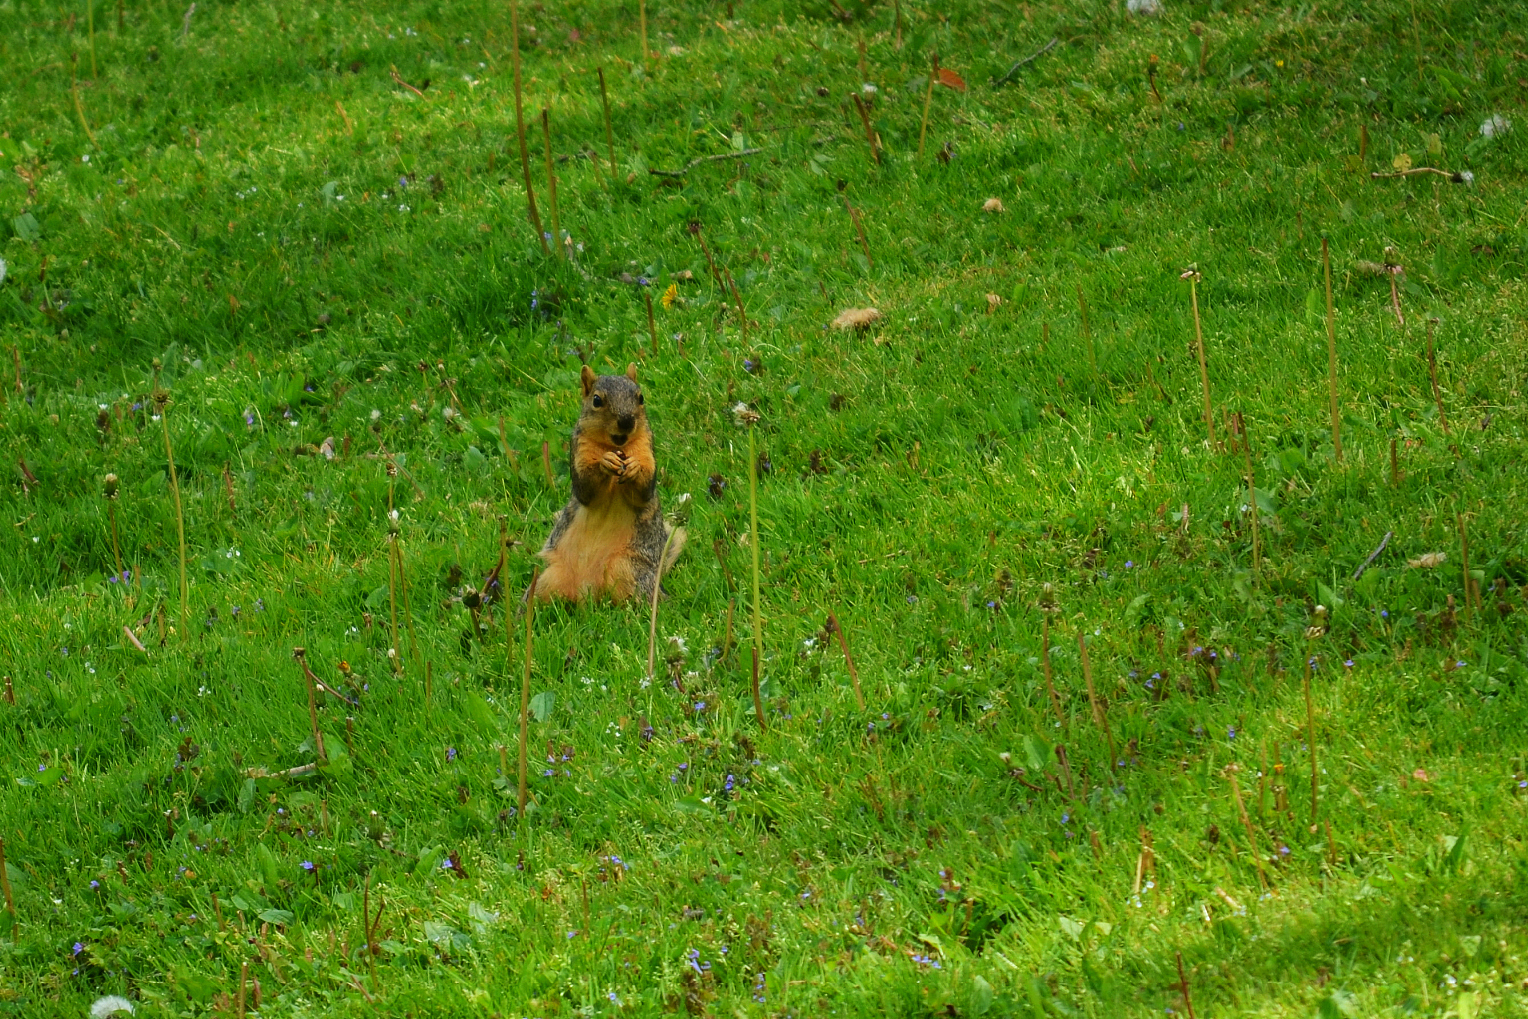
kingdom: Animalia
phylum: Chordata
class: Mammalia
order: Rodentia
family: Sciuridae
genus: Sciurus
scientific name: Sciurus niger
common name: Fox squirrel
